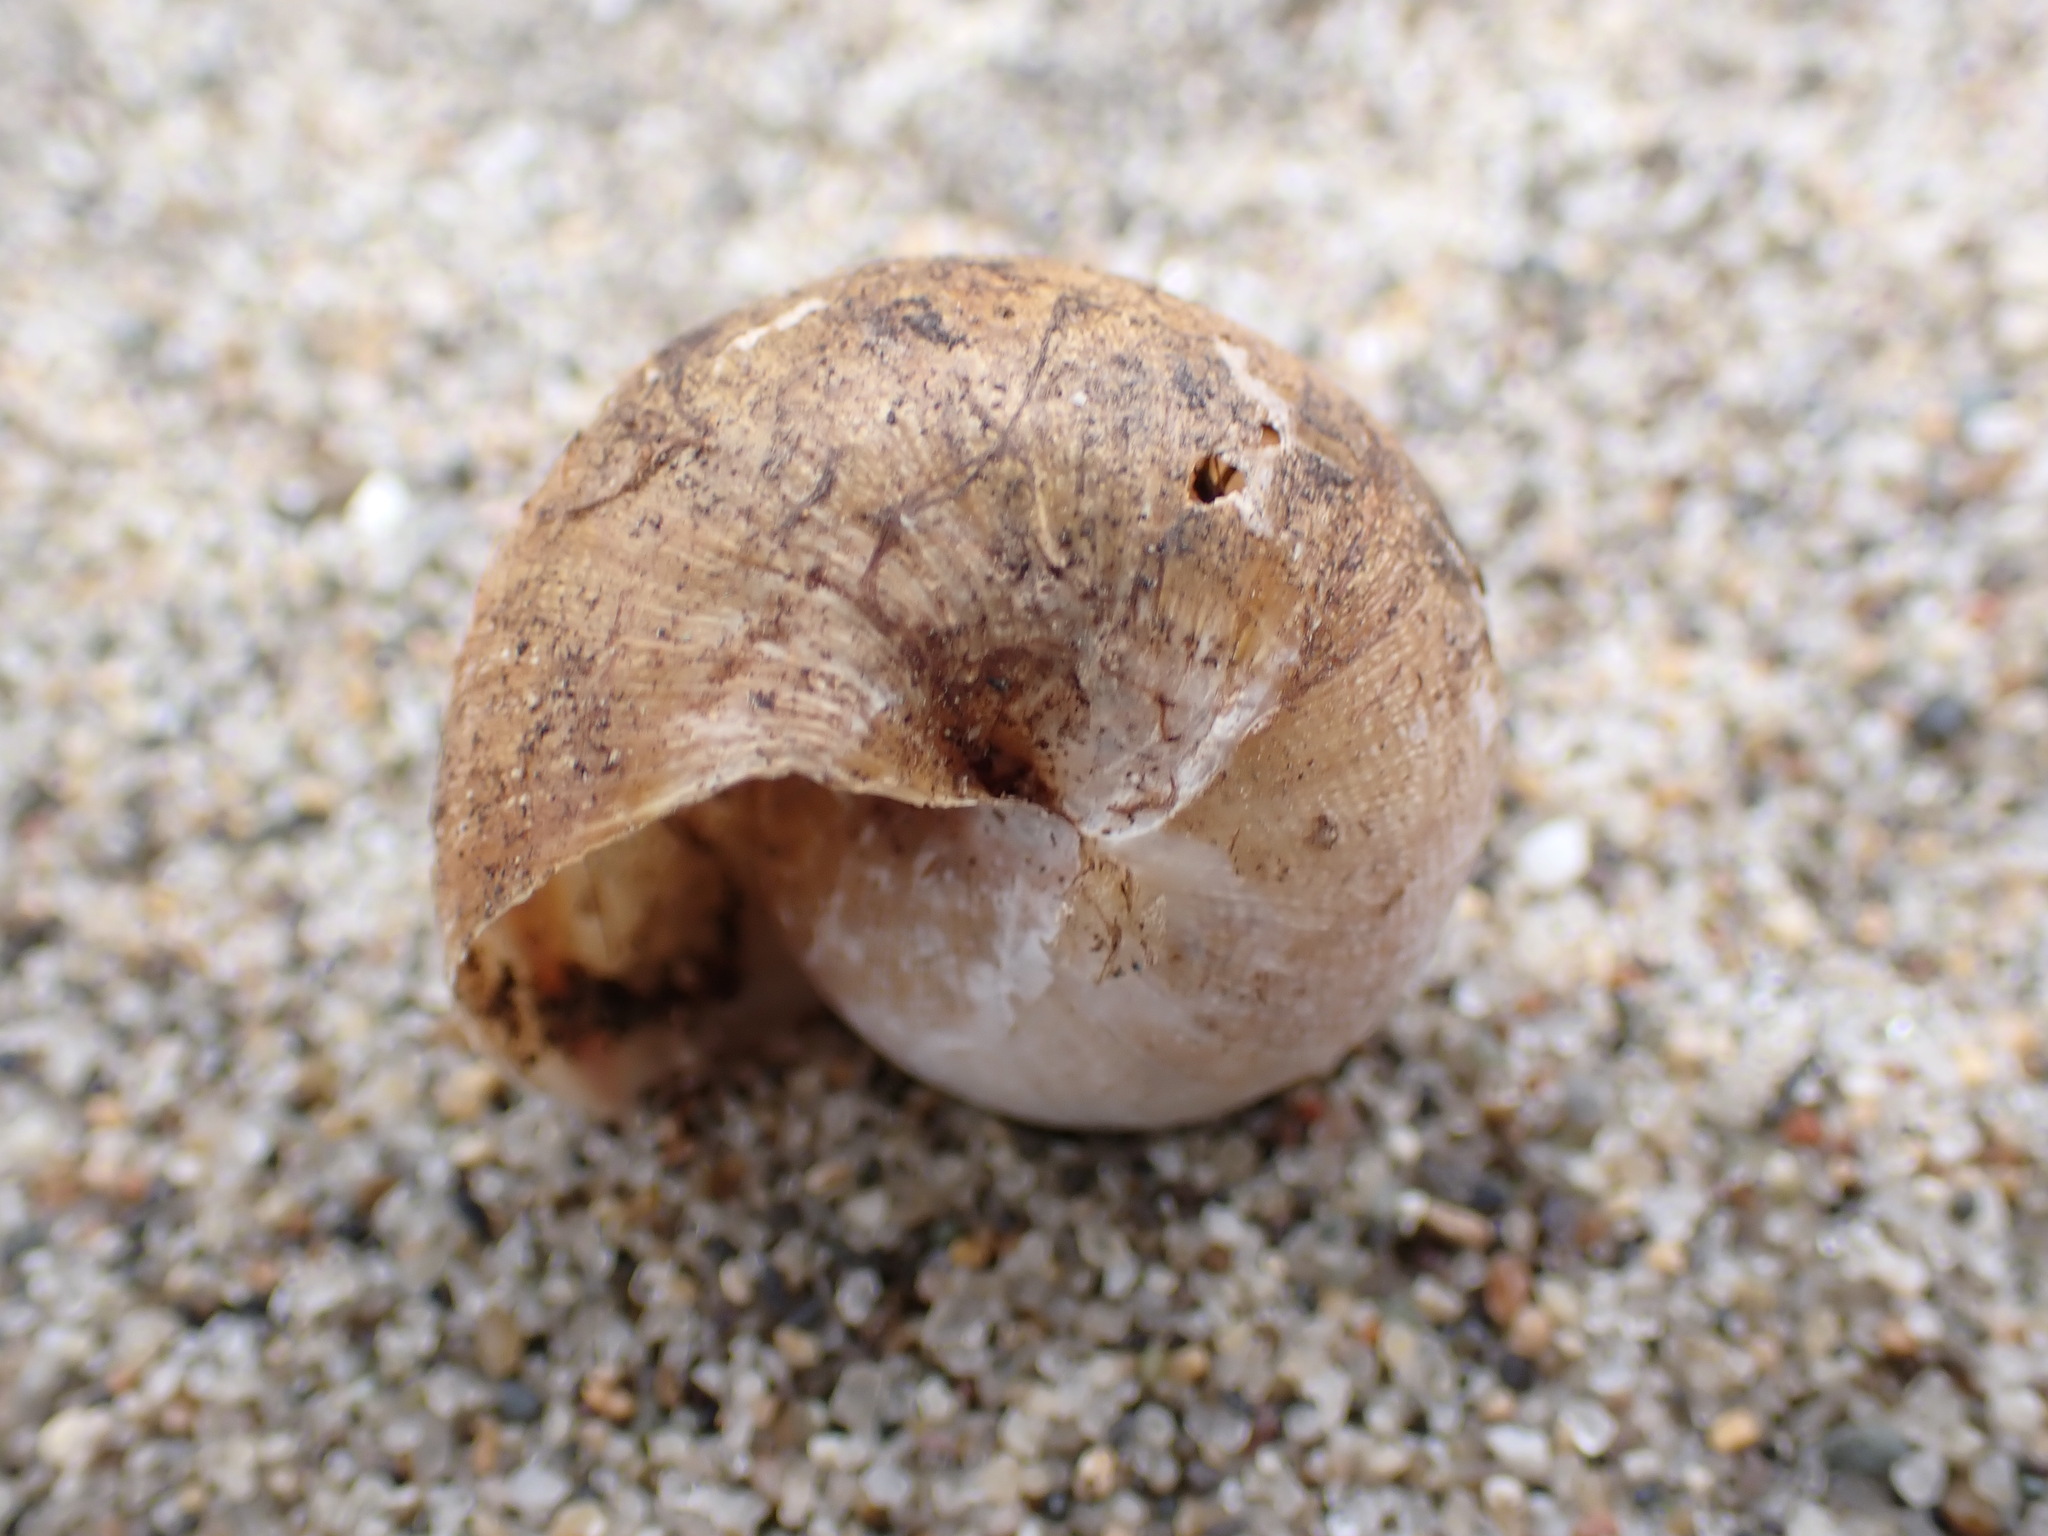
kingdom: Animalia
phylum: Mollusca
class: Gastropoda
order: Stylommatophora
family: Xanthonychidae
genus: Helminthoglypta
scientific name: Helminthoglypta nickliniana
